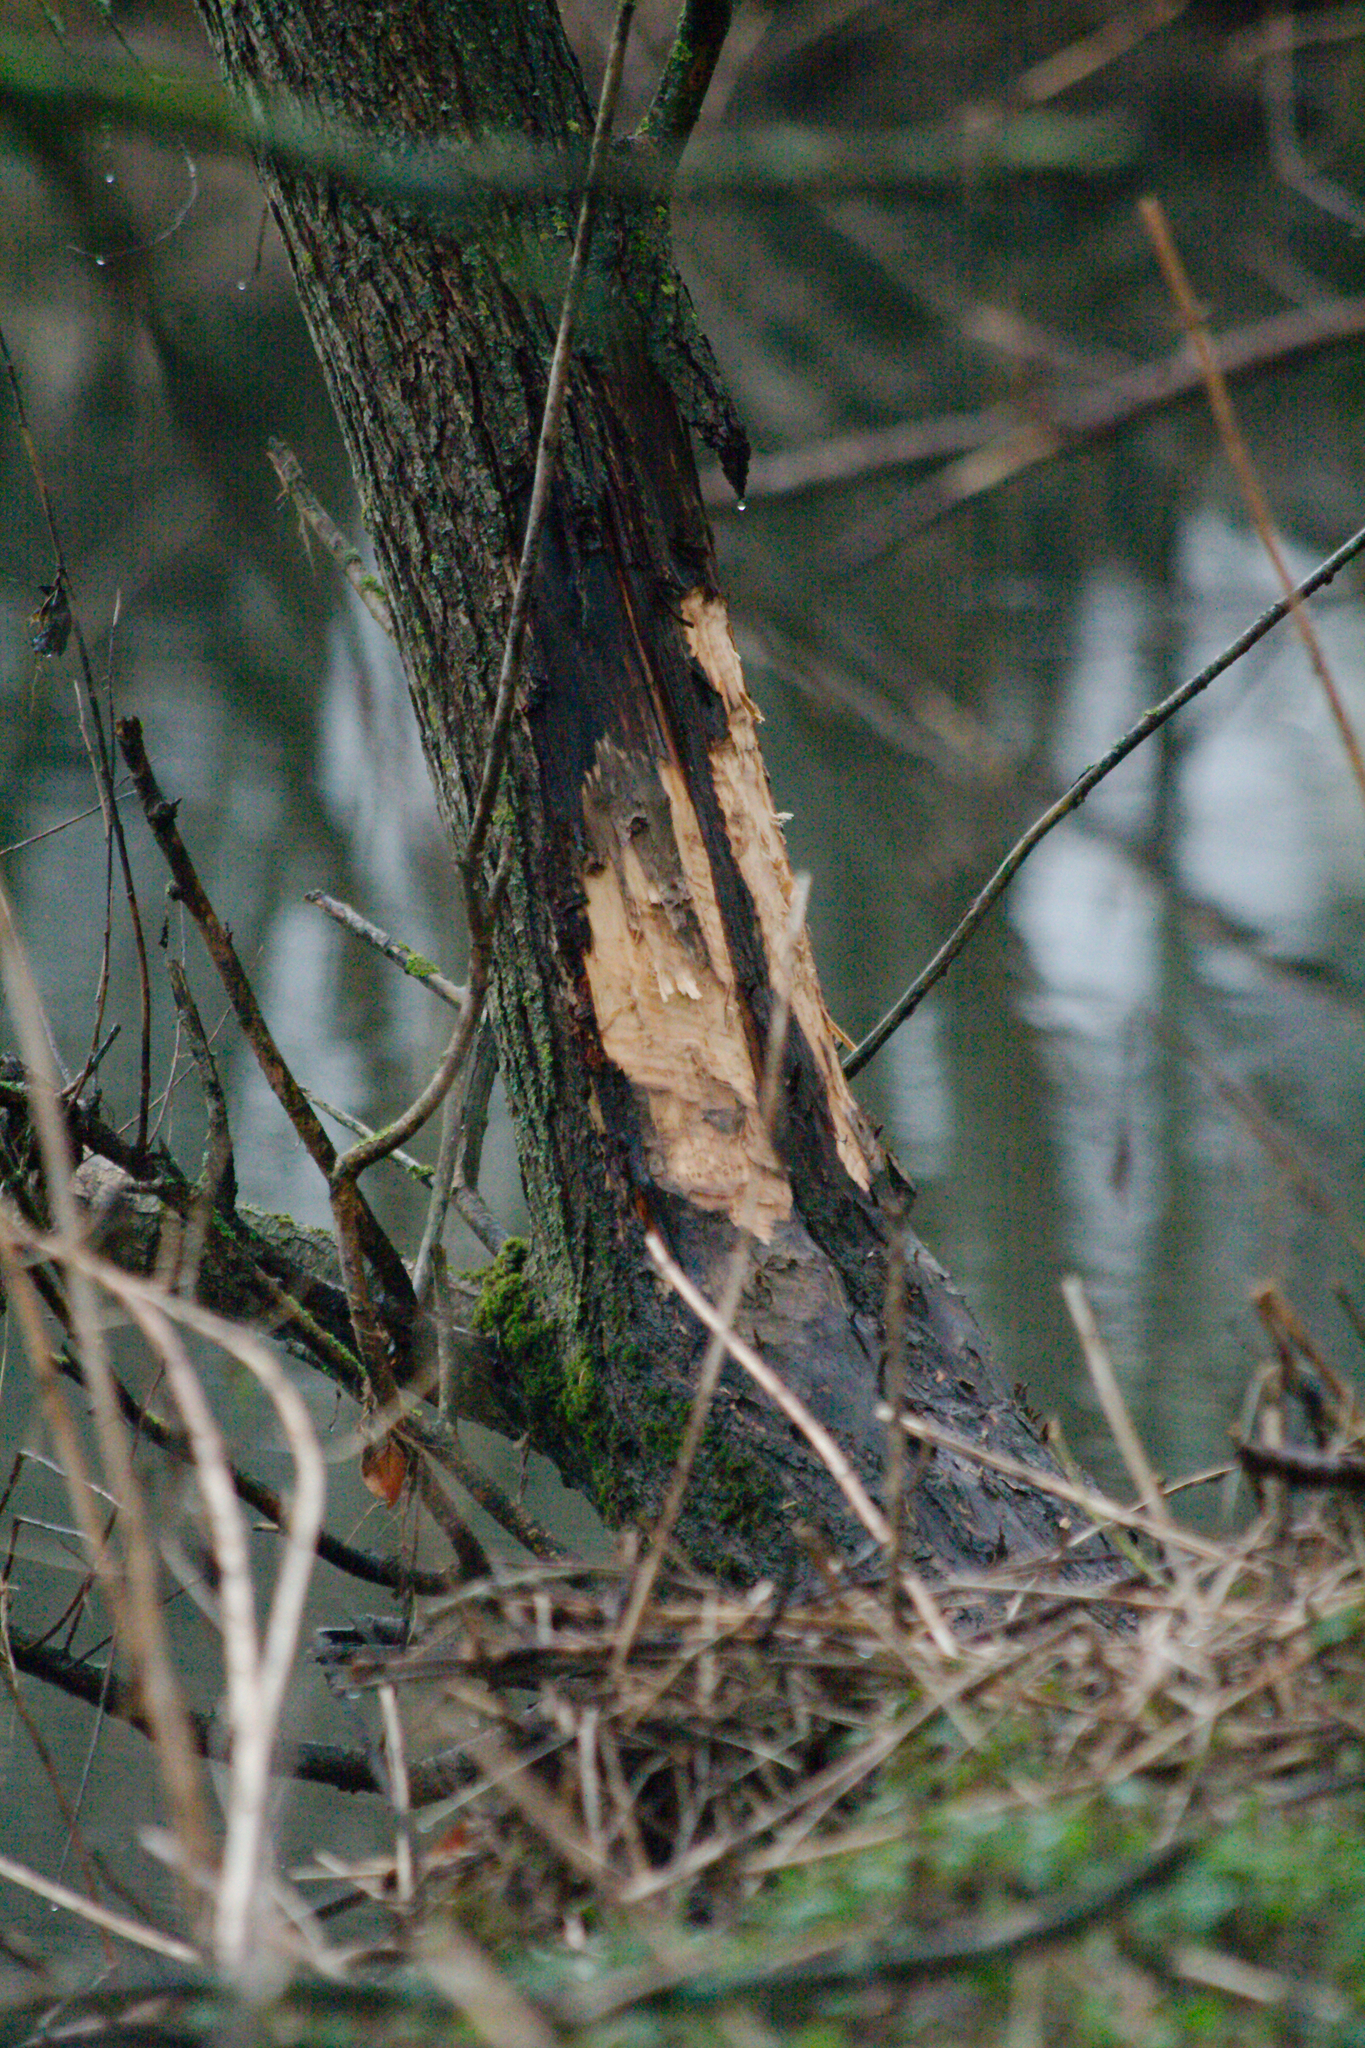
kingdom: Animalia
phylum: Chordata
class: Mammalia
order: Rodentia
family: Castoridae
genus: Castor
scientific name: Castor fiber
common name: Eurasian beaver
